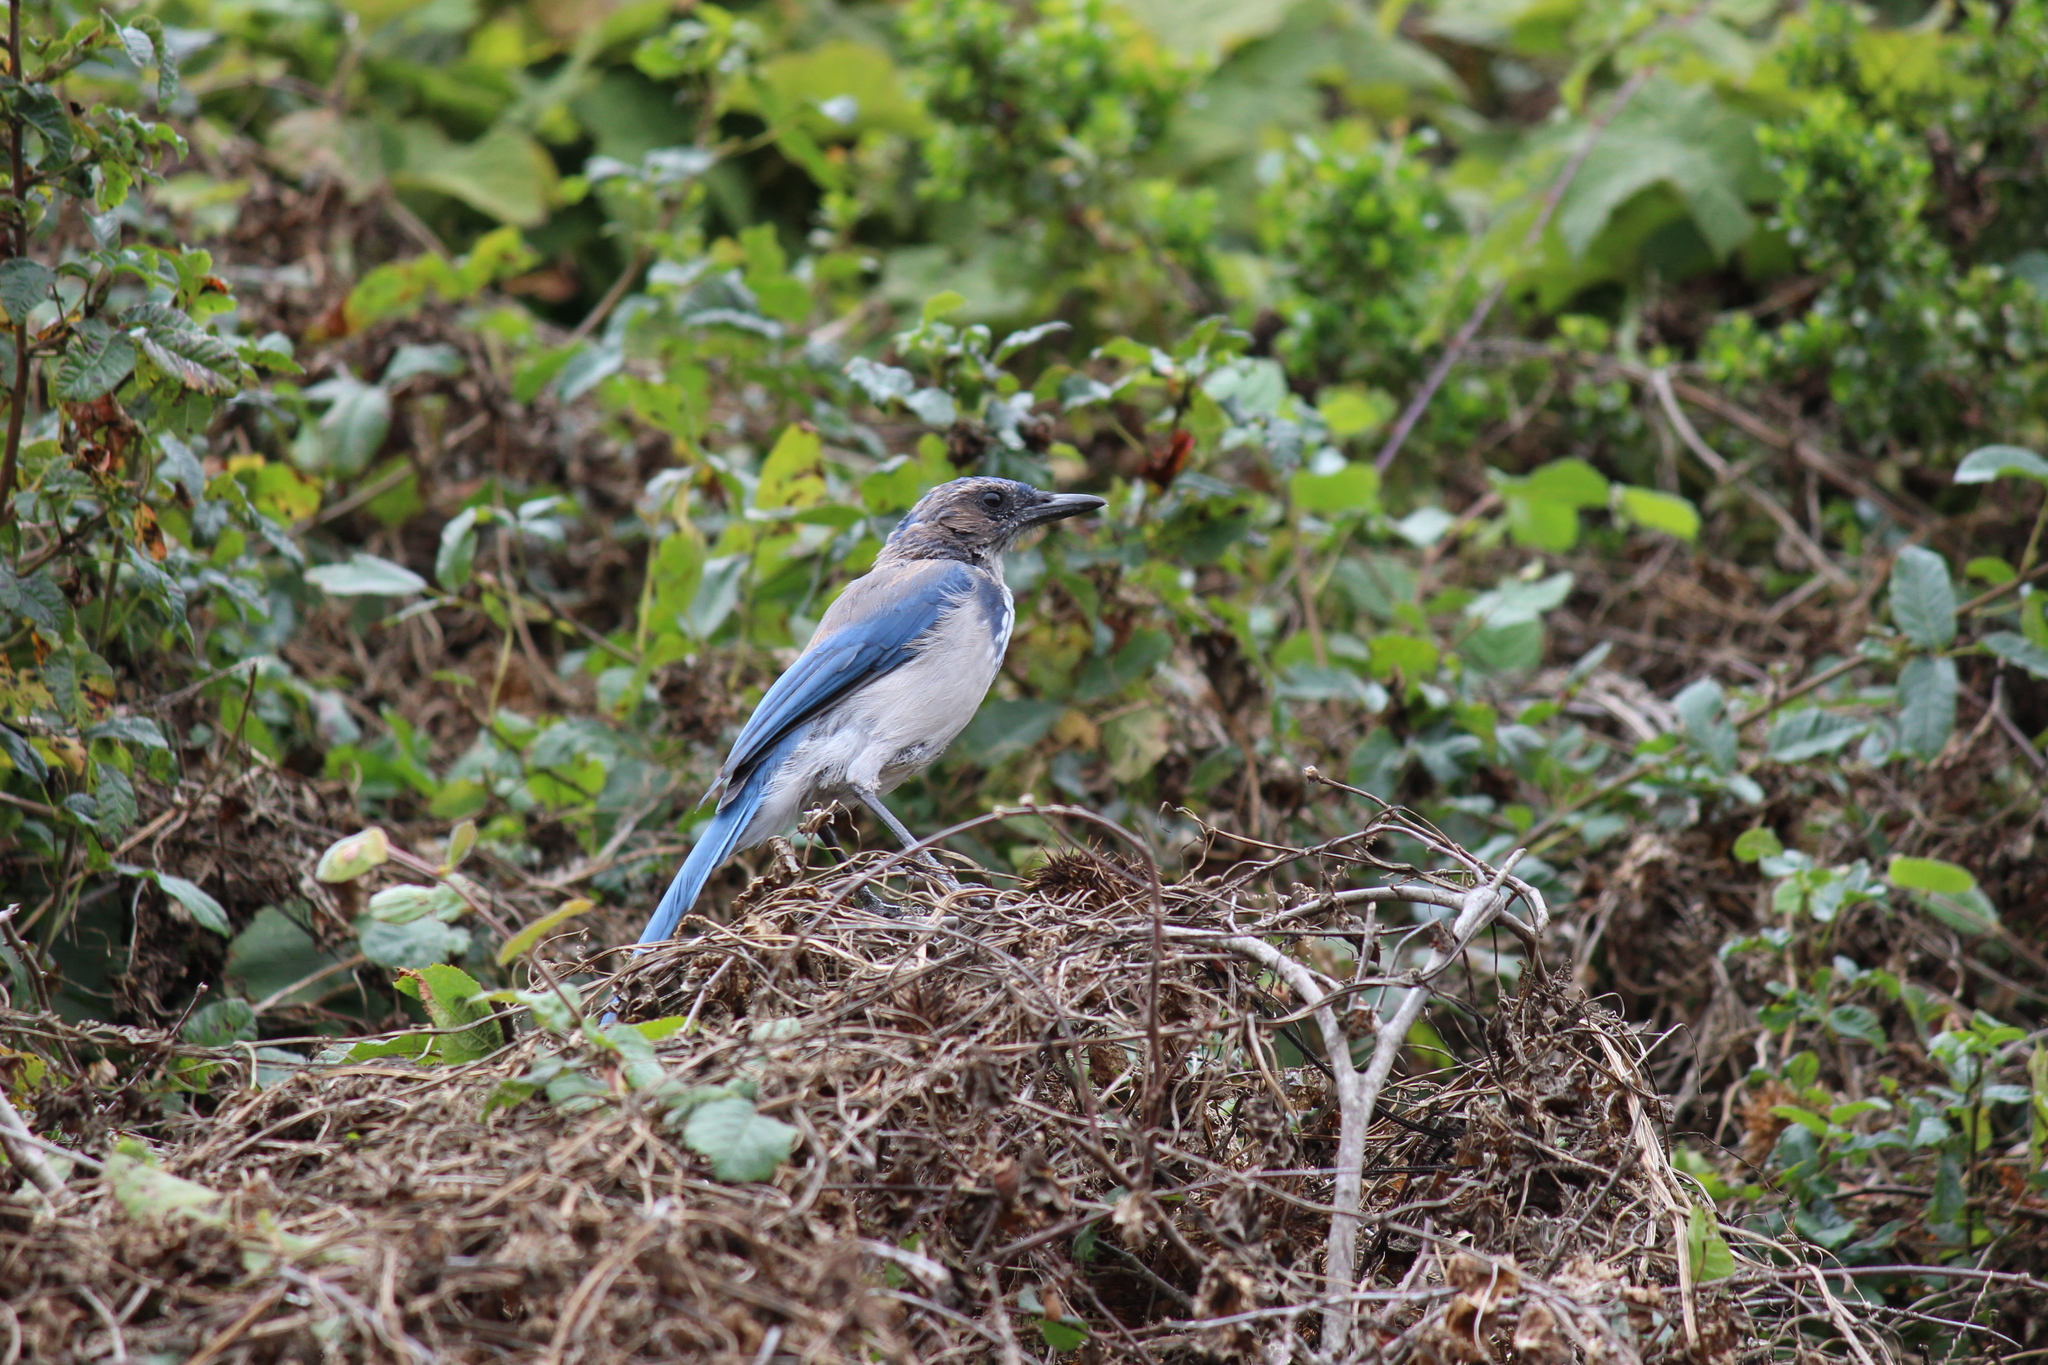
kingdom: Animalia
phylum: Chordata
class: Aves
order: Passeriformes
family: Corvidae
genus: Aphelocoma
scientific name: Aphelocoma californica
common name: California scrub-jay
